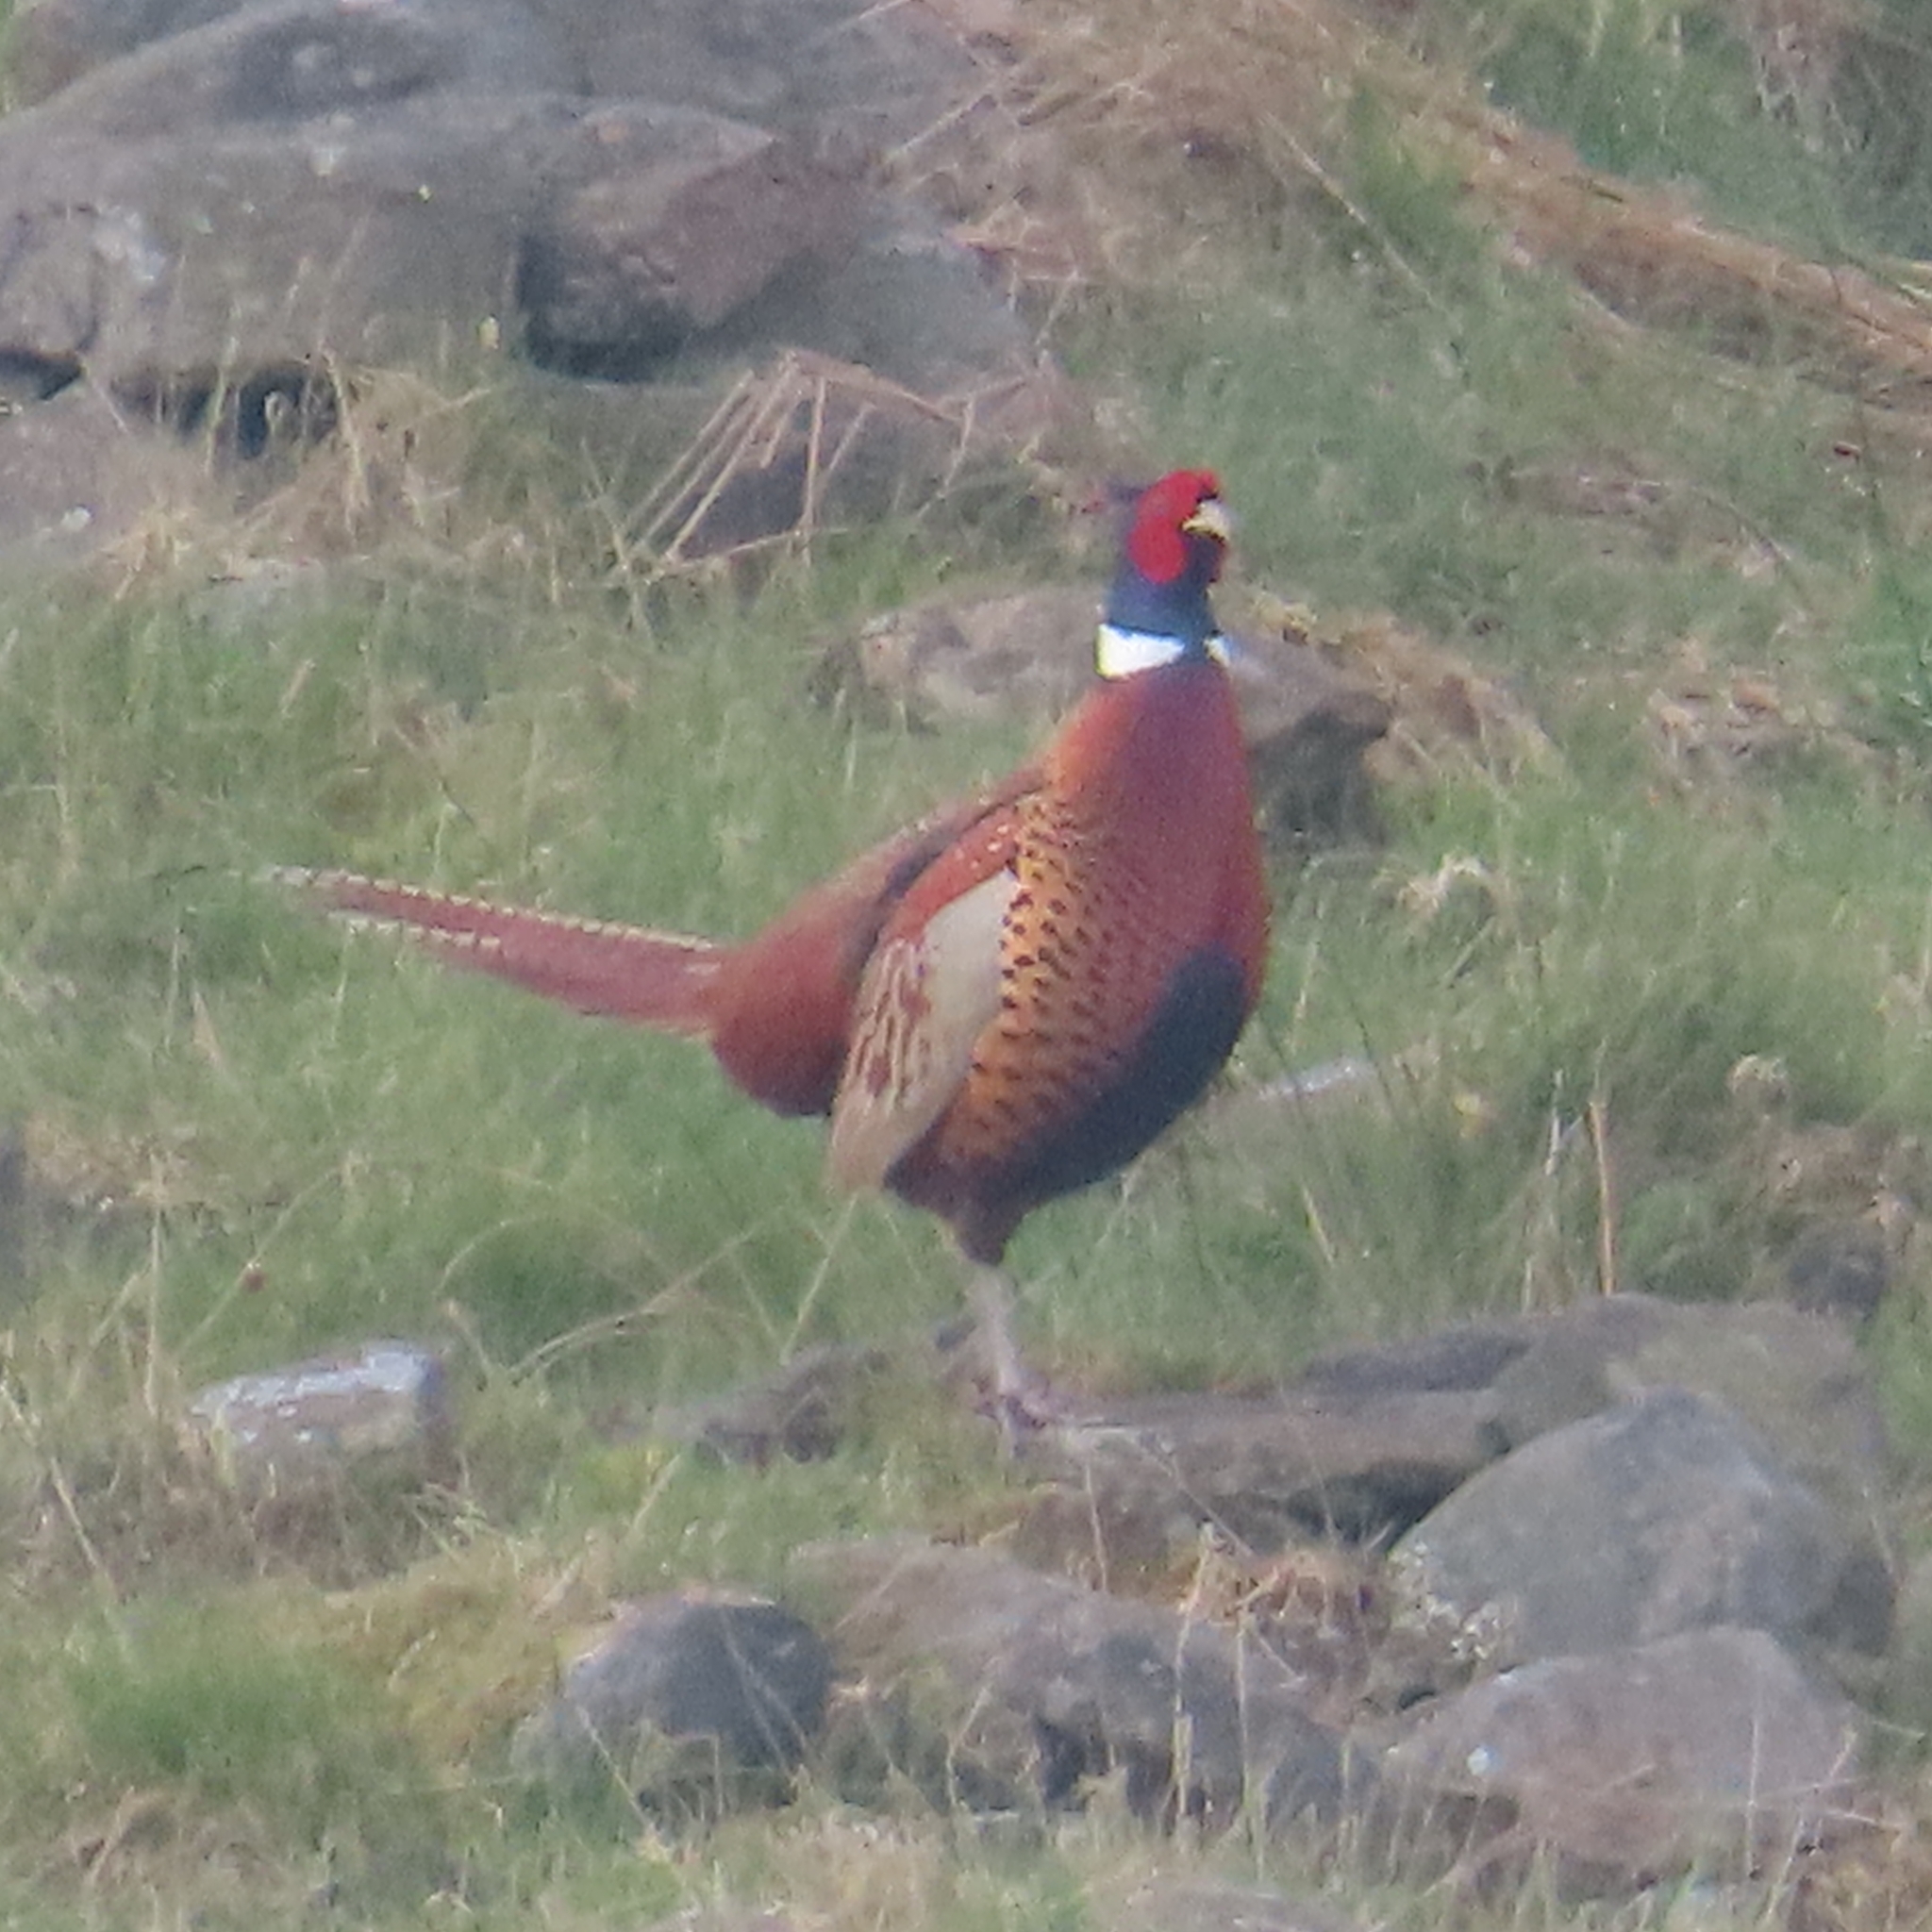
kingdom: Animalia
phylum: Chordata
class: Aves
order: Galliformes
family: Phasianidae
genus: Phasianus
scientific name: Phasianus colchicus
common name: Common pheasant
